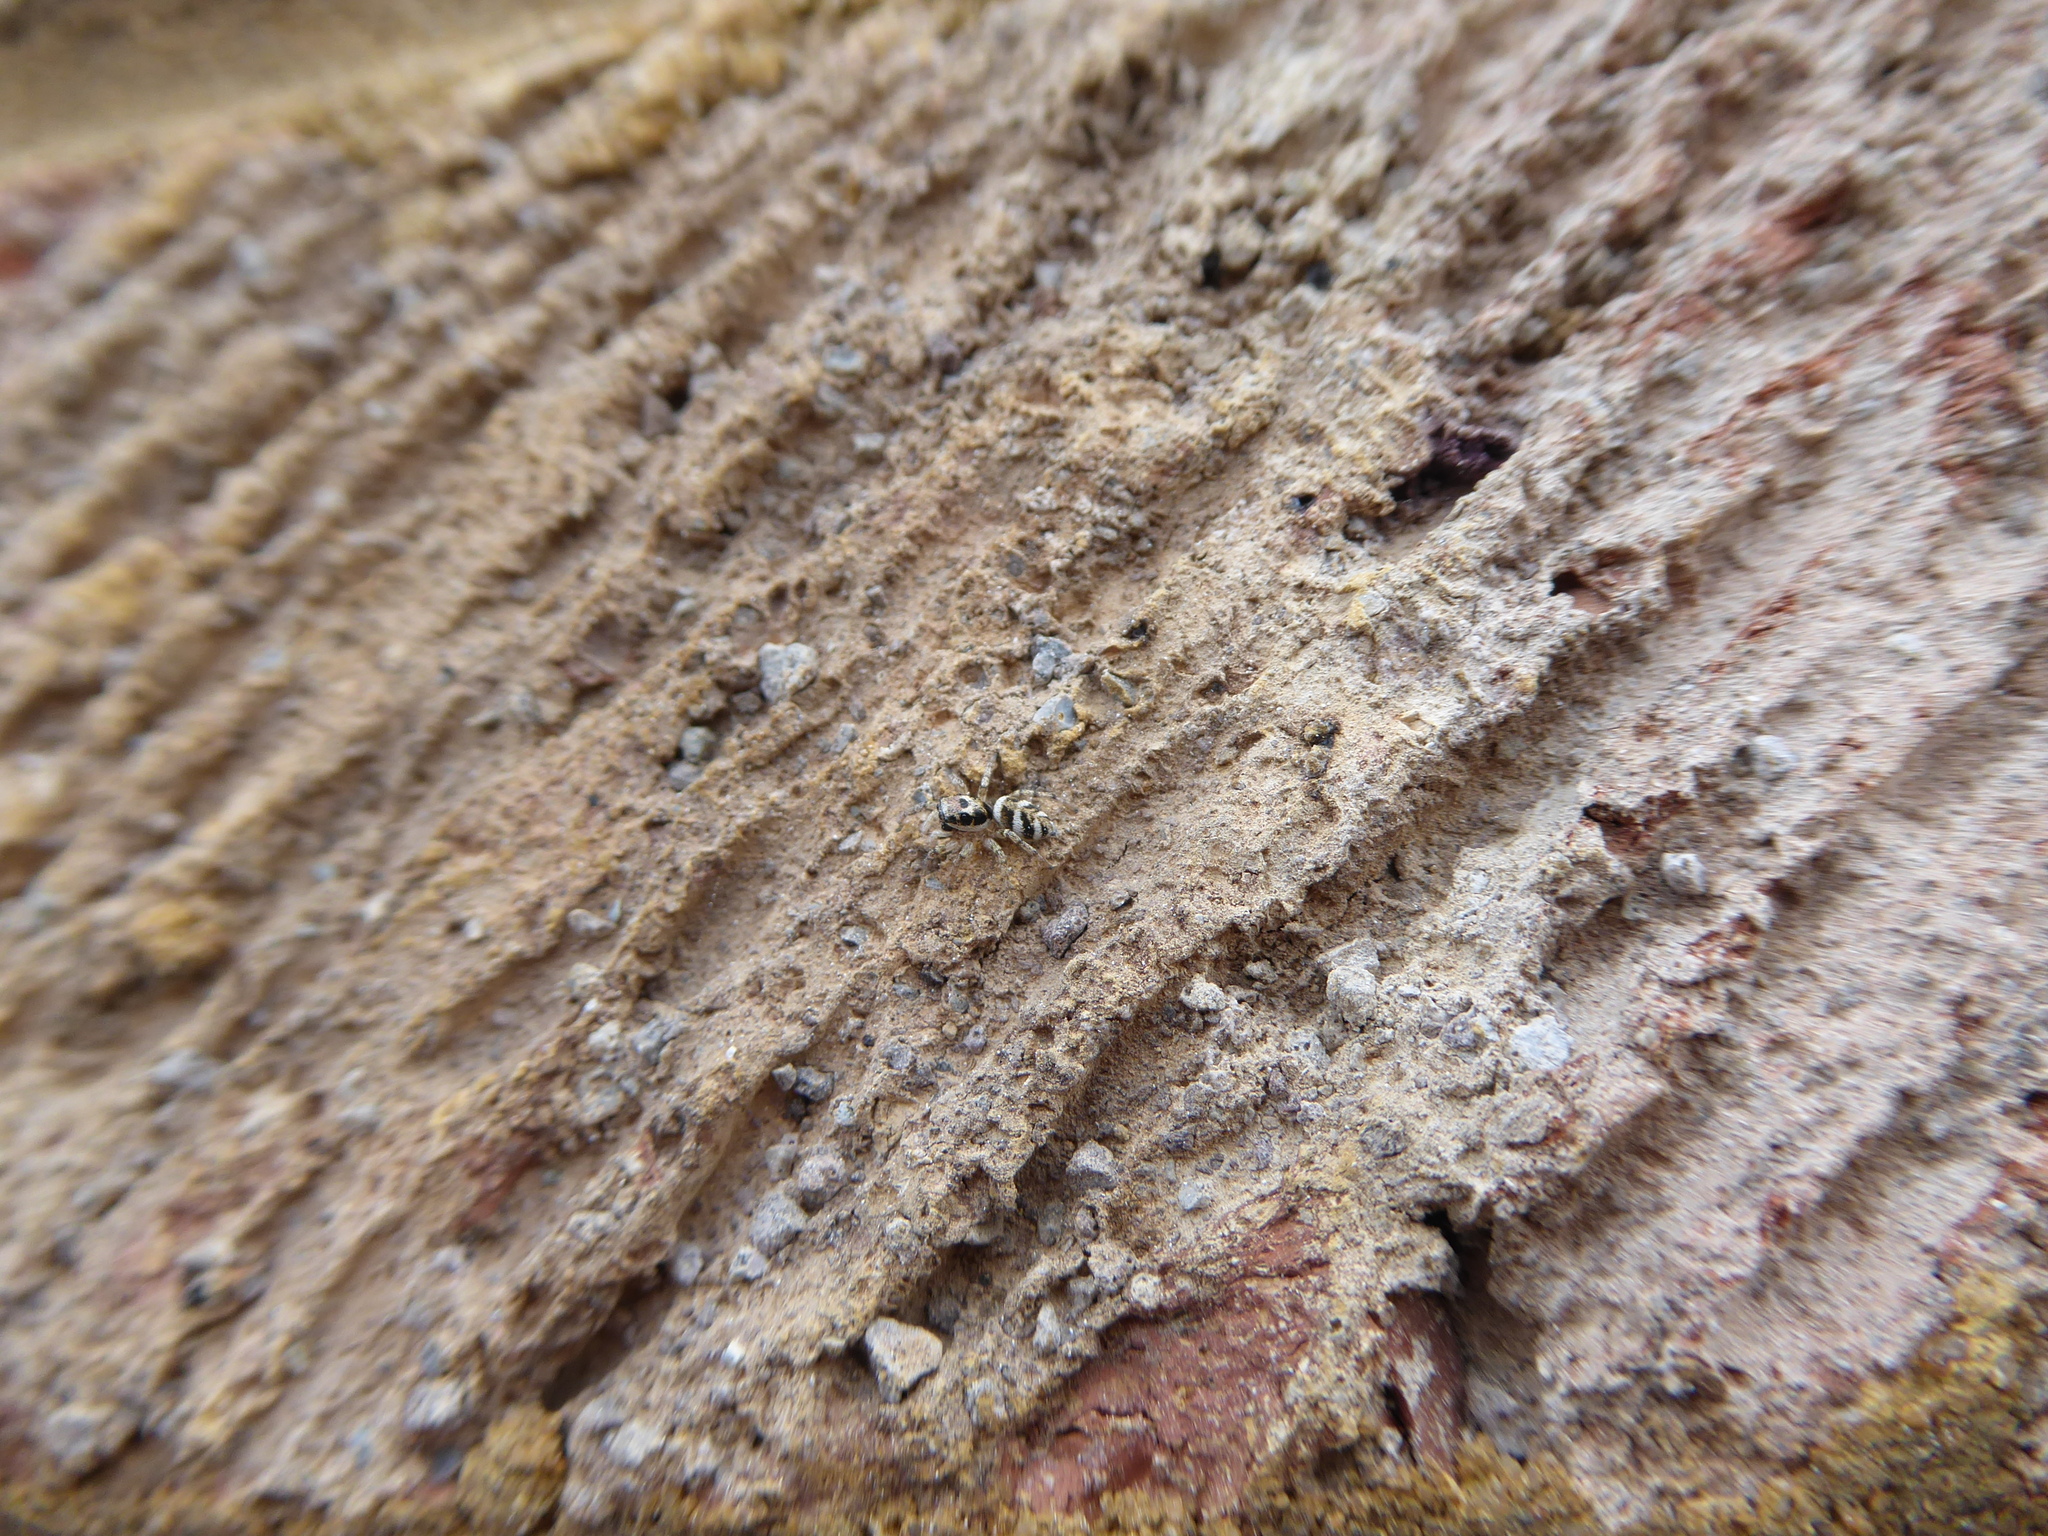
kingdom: Animalia
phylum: Arthropoda
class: Arachnida
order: Araneae
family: Salticidae
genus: Salticus
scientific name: Salticus scenicus
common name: Zebra jumper
